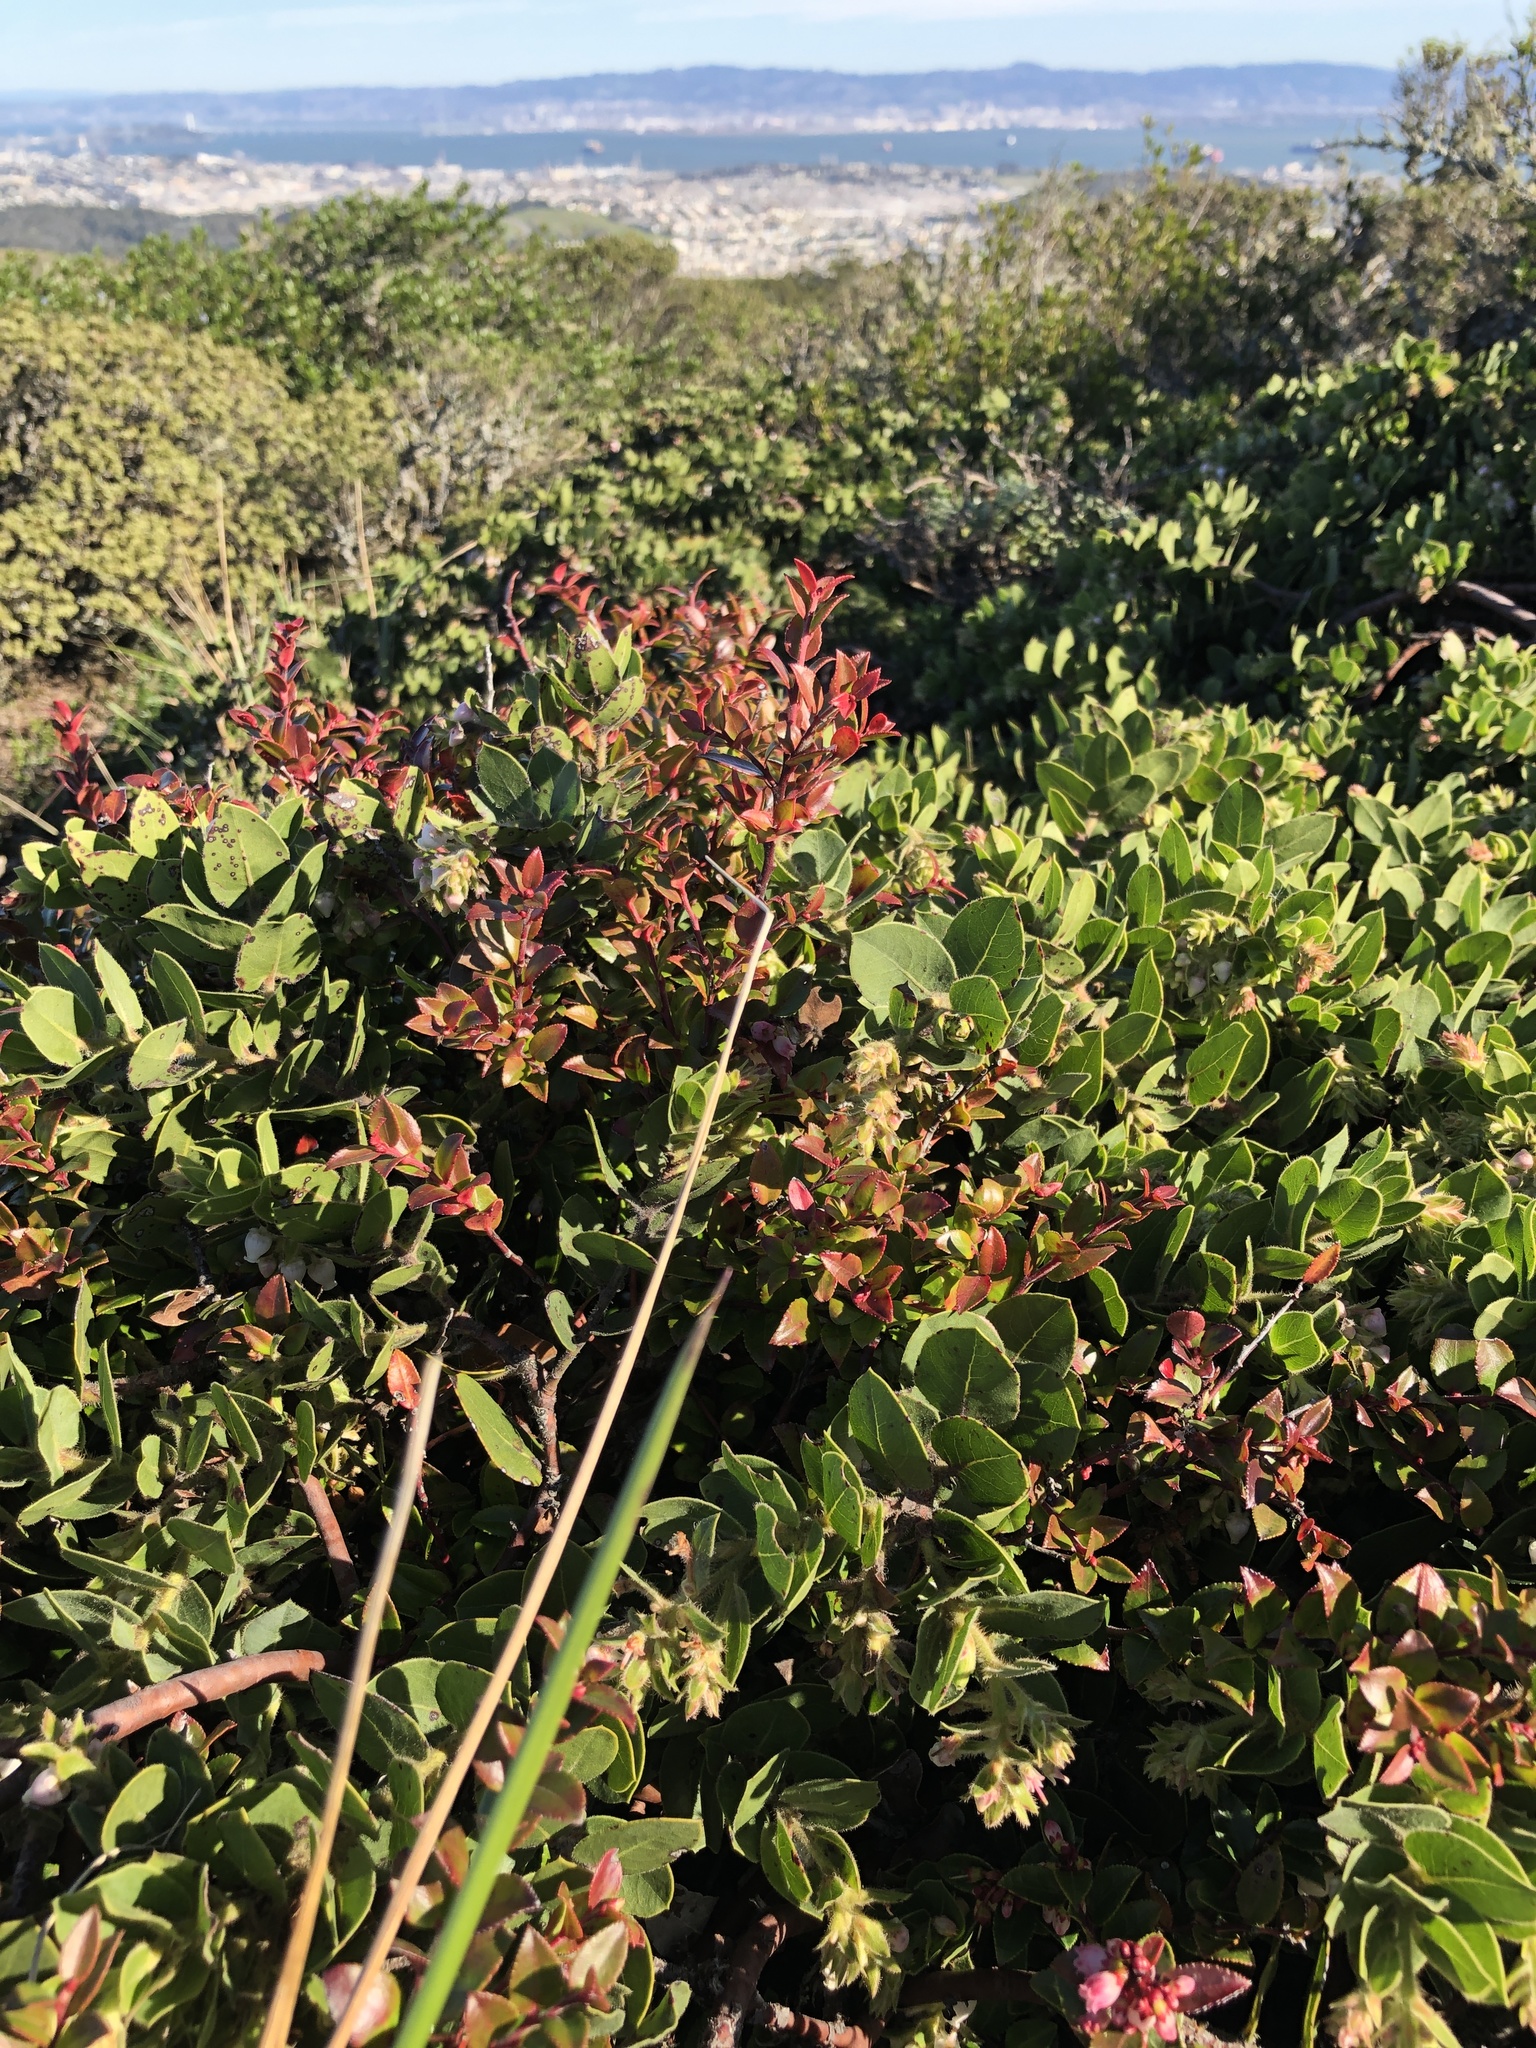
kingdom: Plantae
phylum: Tracheophyta
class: Magnoliopsida
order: Ericales
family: Ericaceae
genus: Vaccinium
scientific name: Vaccinium ovatum
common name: California-huckleberry
